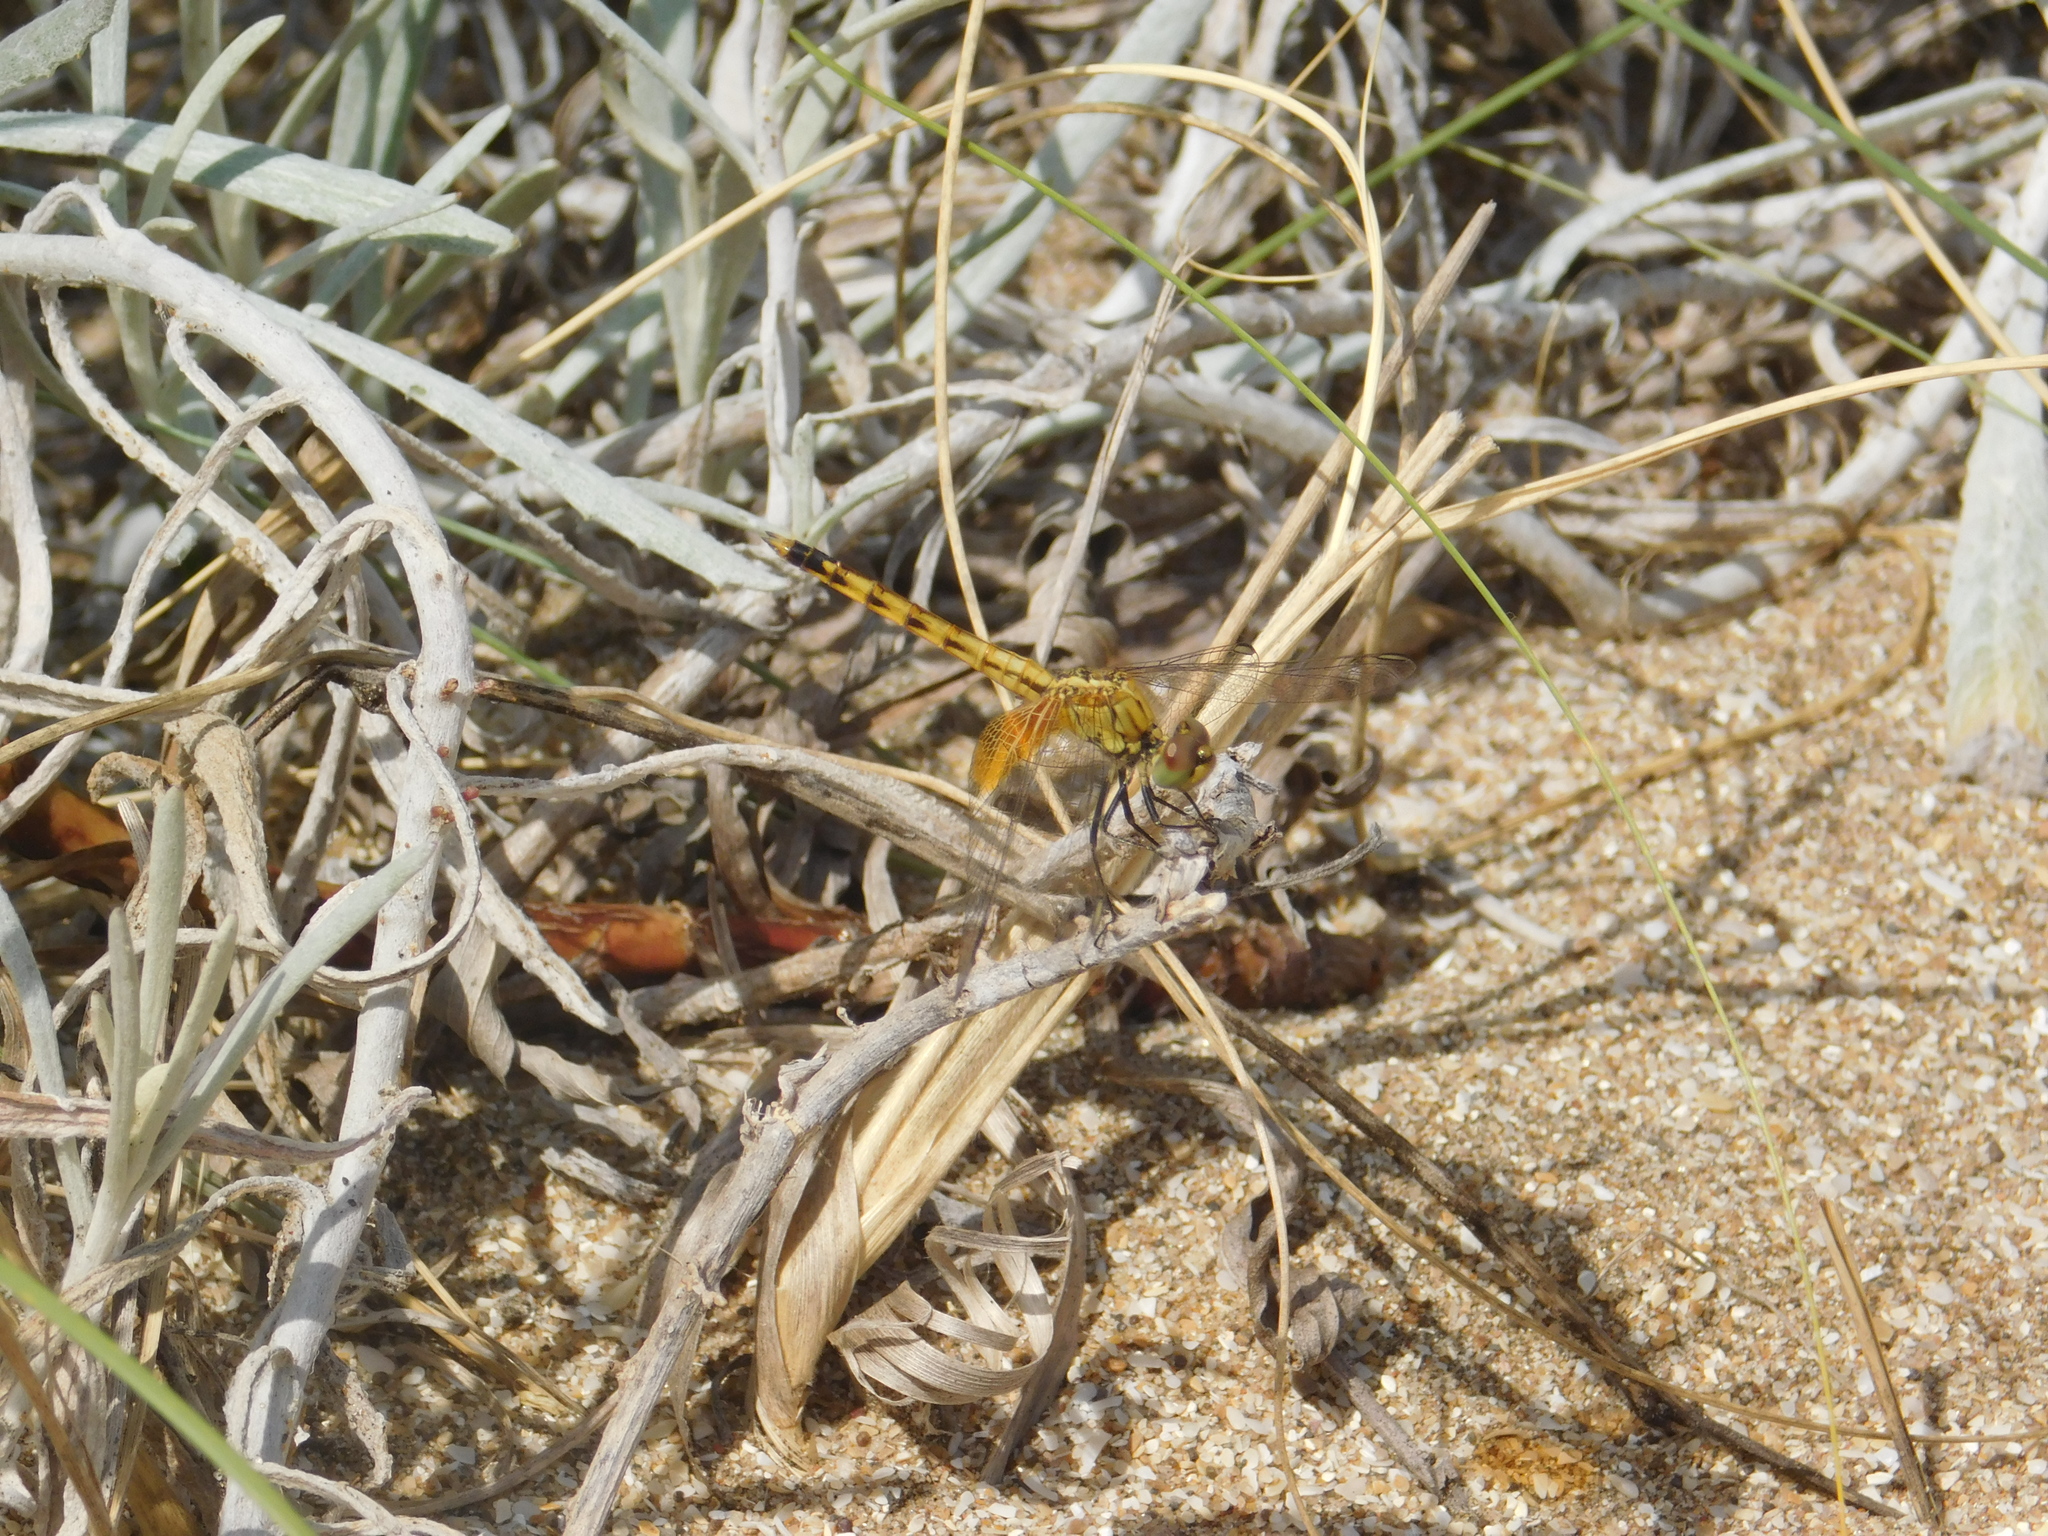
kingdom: Animalia
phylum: Arthropoda
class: Insecta
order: Odonata
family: Libellulidae
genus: Erythrodiplax
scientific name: Erythrodiplax corallina
